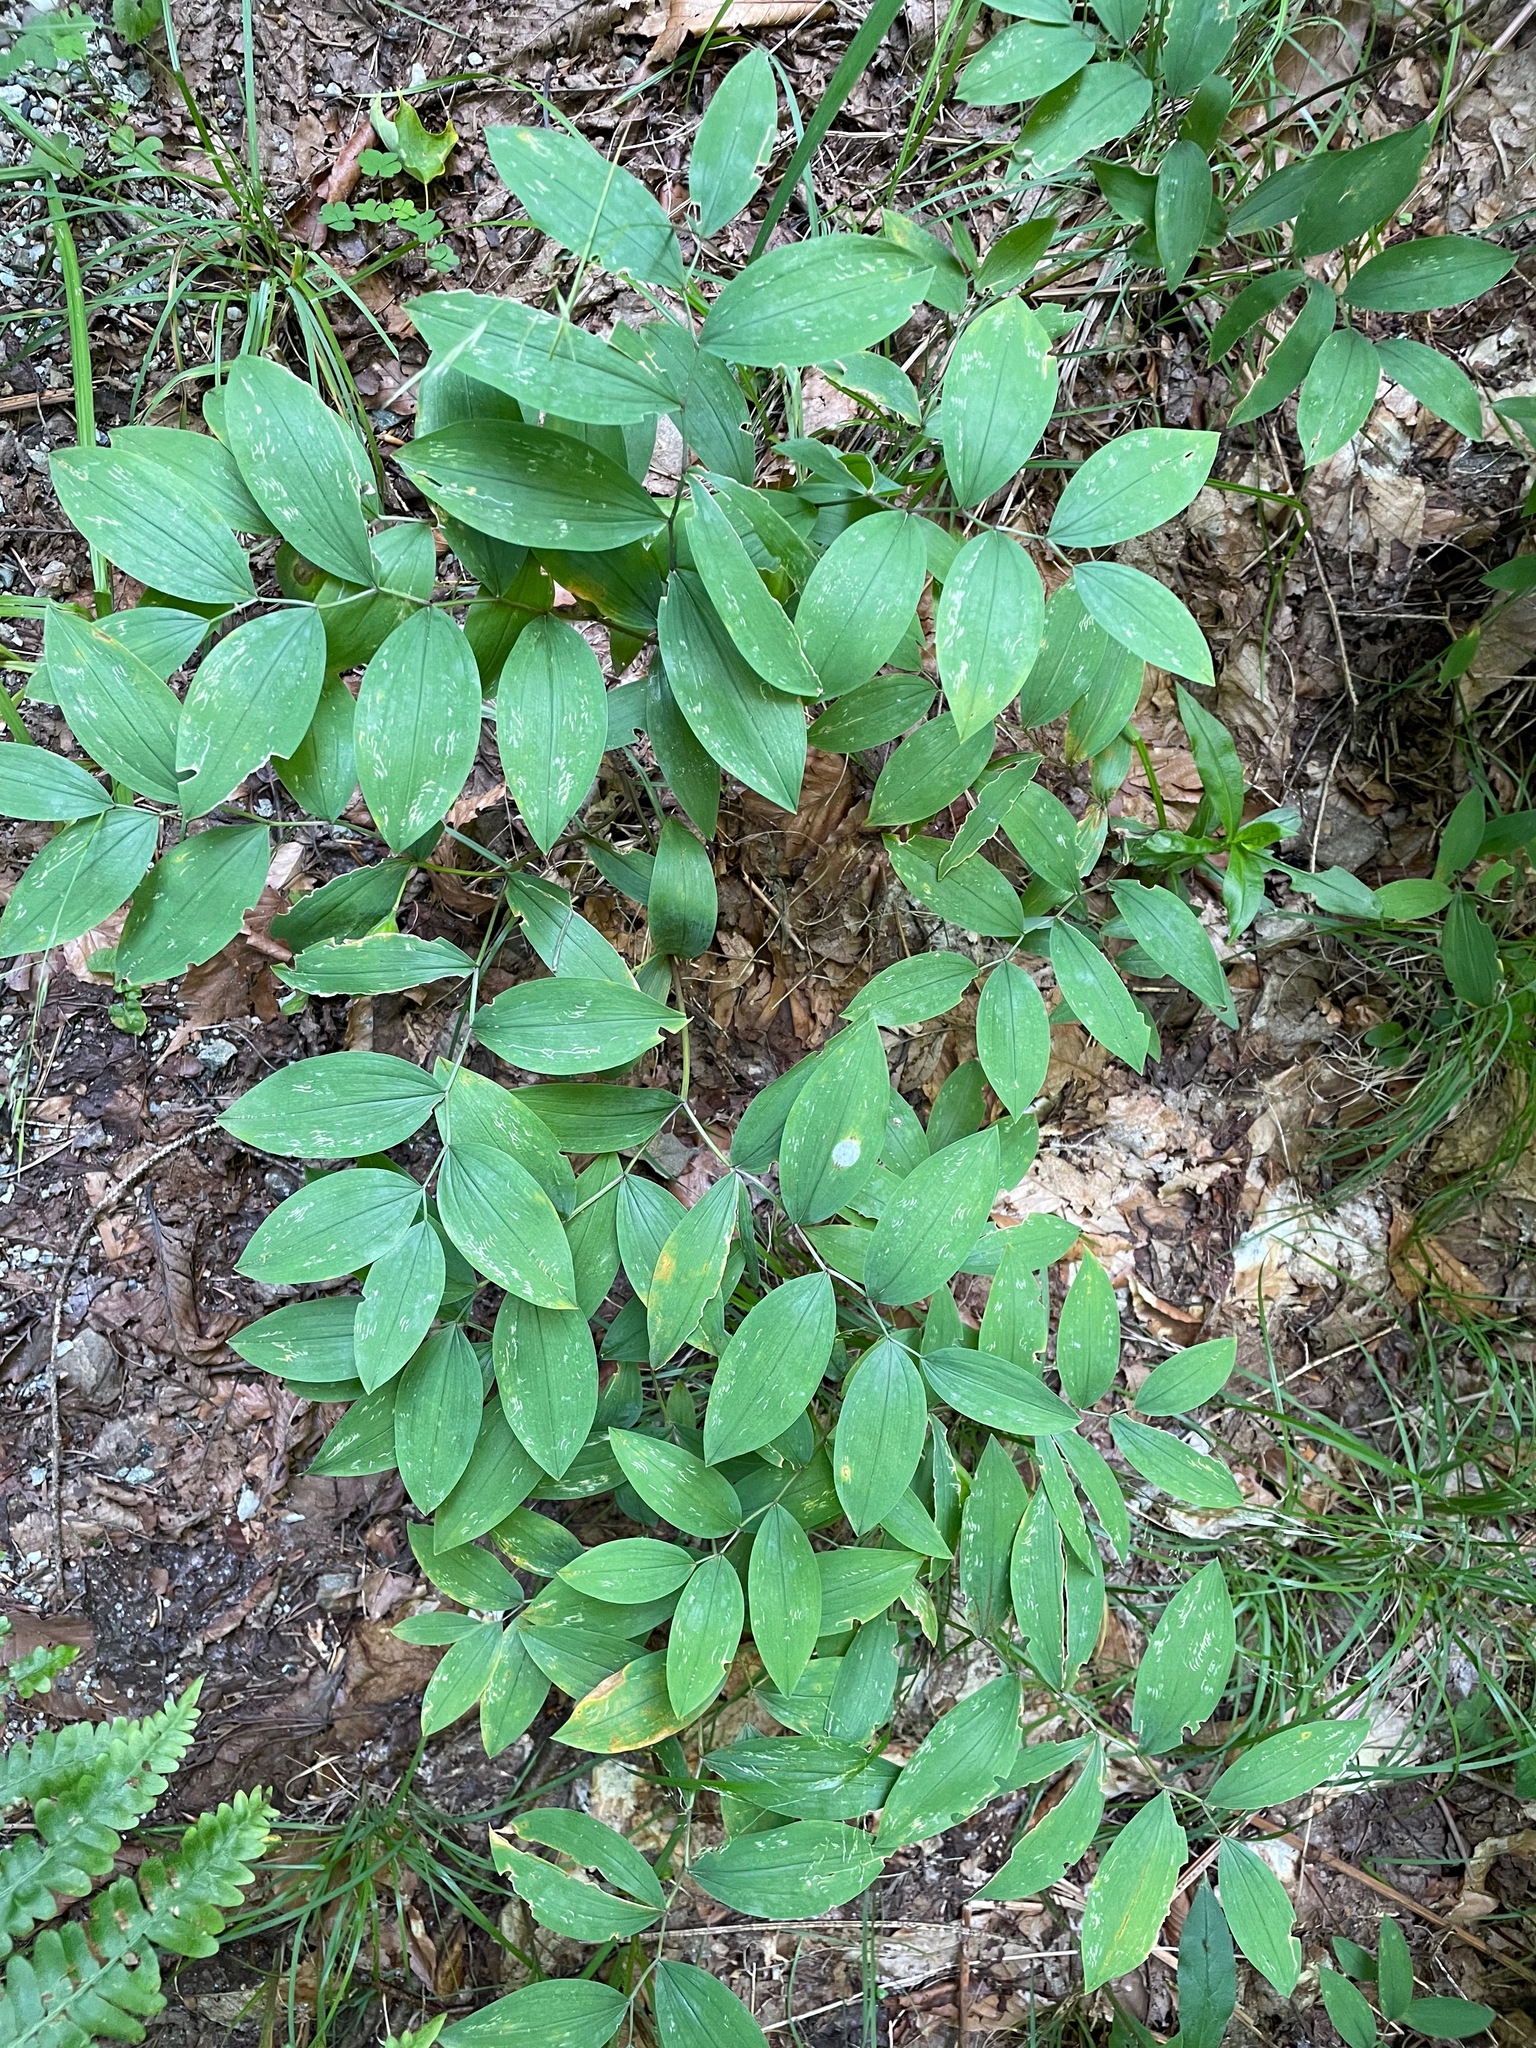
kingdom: Plantae
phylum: Tracheophyta
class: Liliopsida
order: Liliales
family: Colchicaceae
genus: Uvularia
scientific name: Uvularia sessilifolia
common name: Straw-lily
